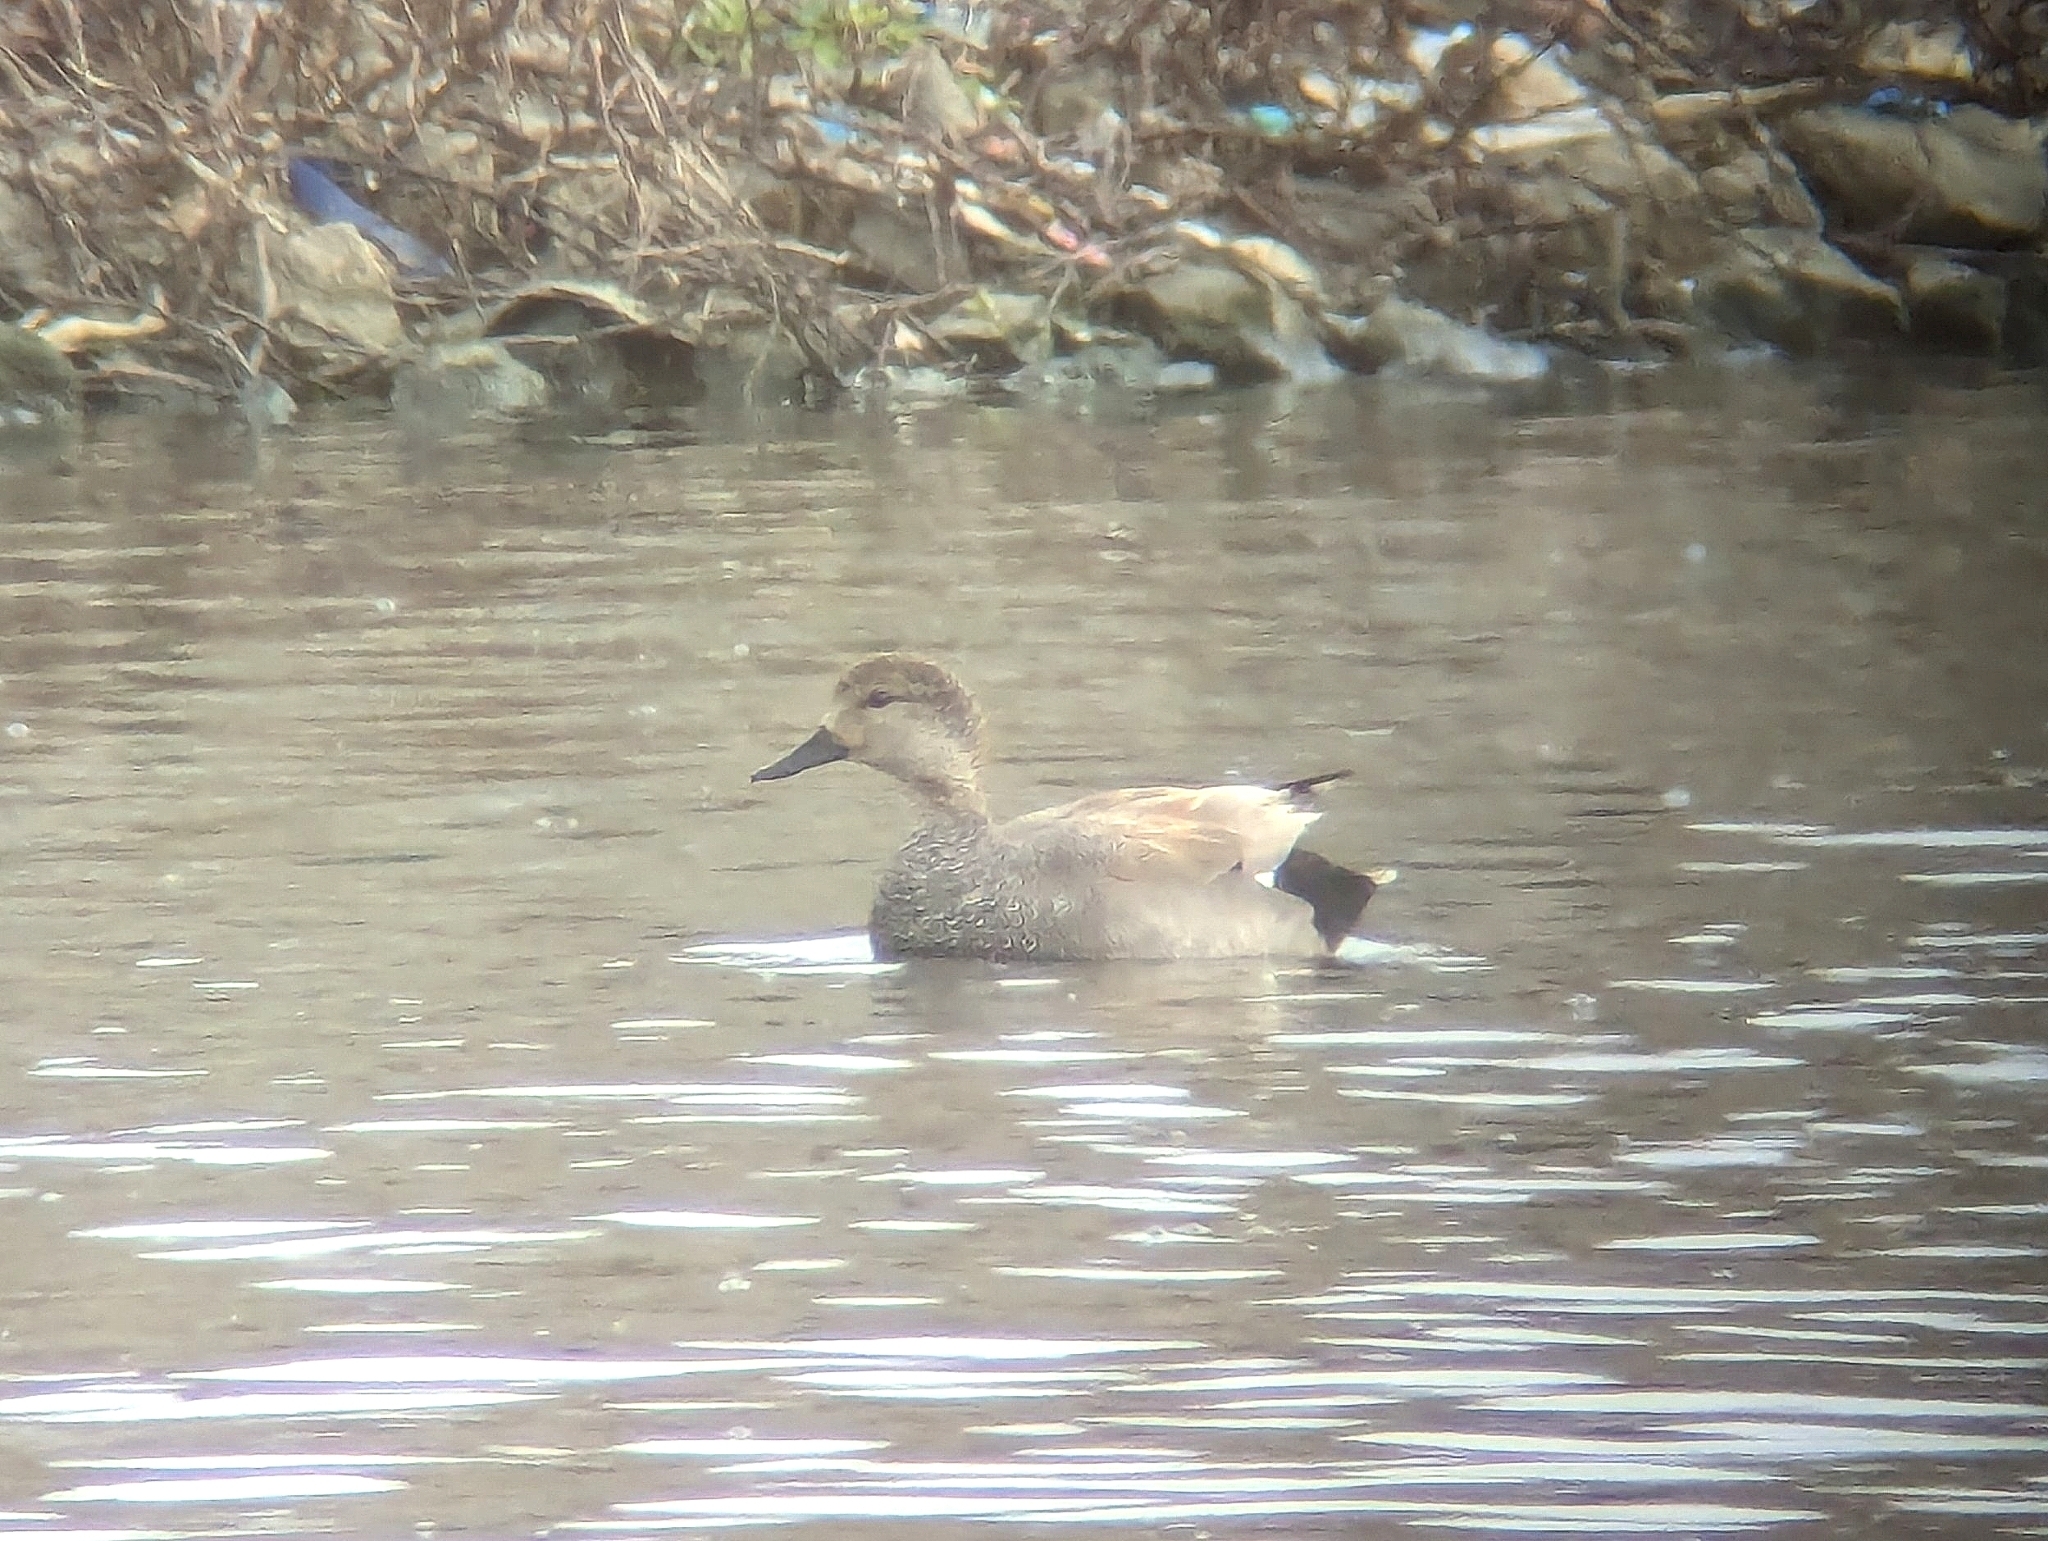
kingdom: Animalia
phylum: Chordata
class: Aves
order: Anseriformes
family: Anatidae
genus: Mareca
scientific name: Mareca strepera
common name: Gadwall
